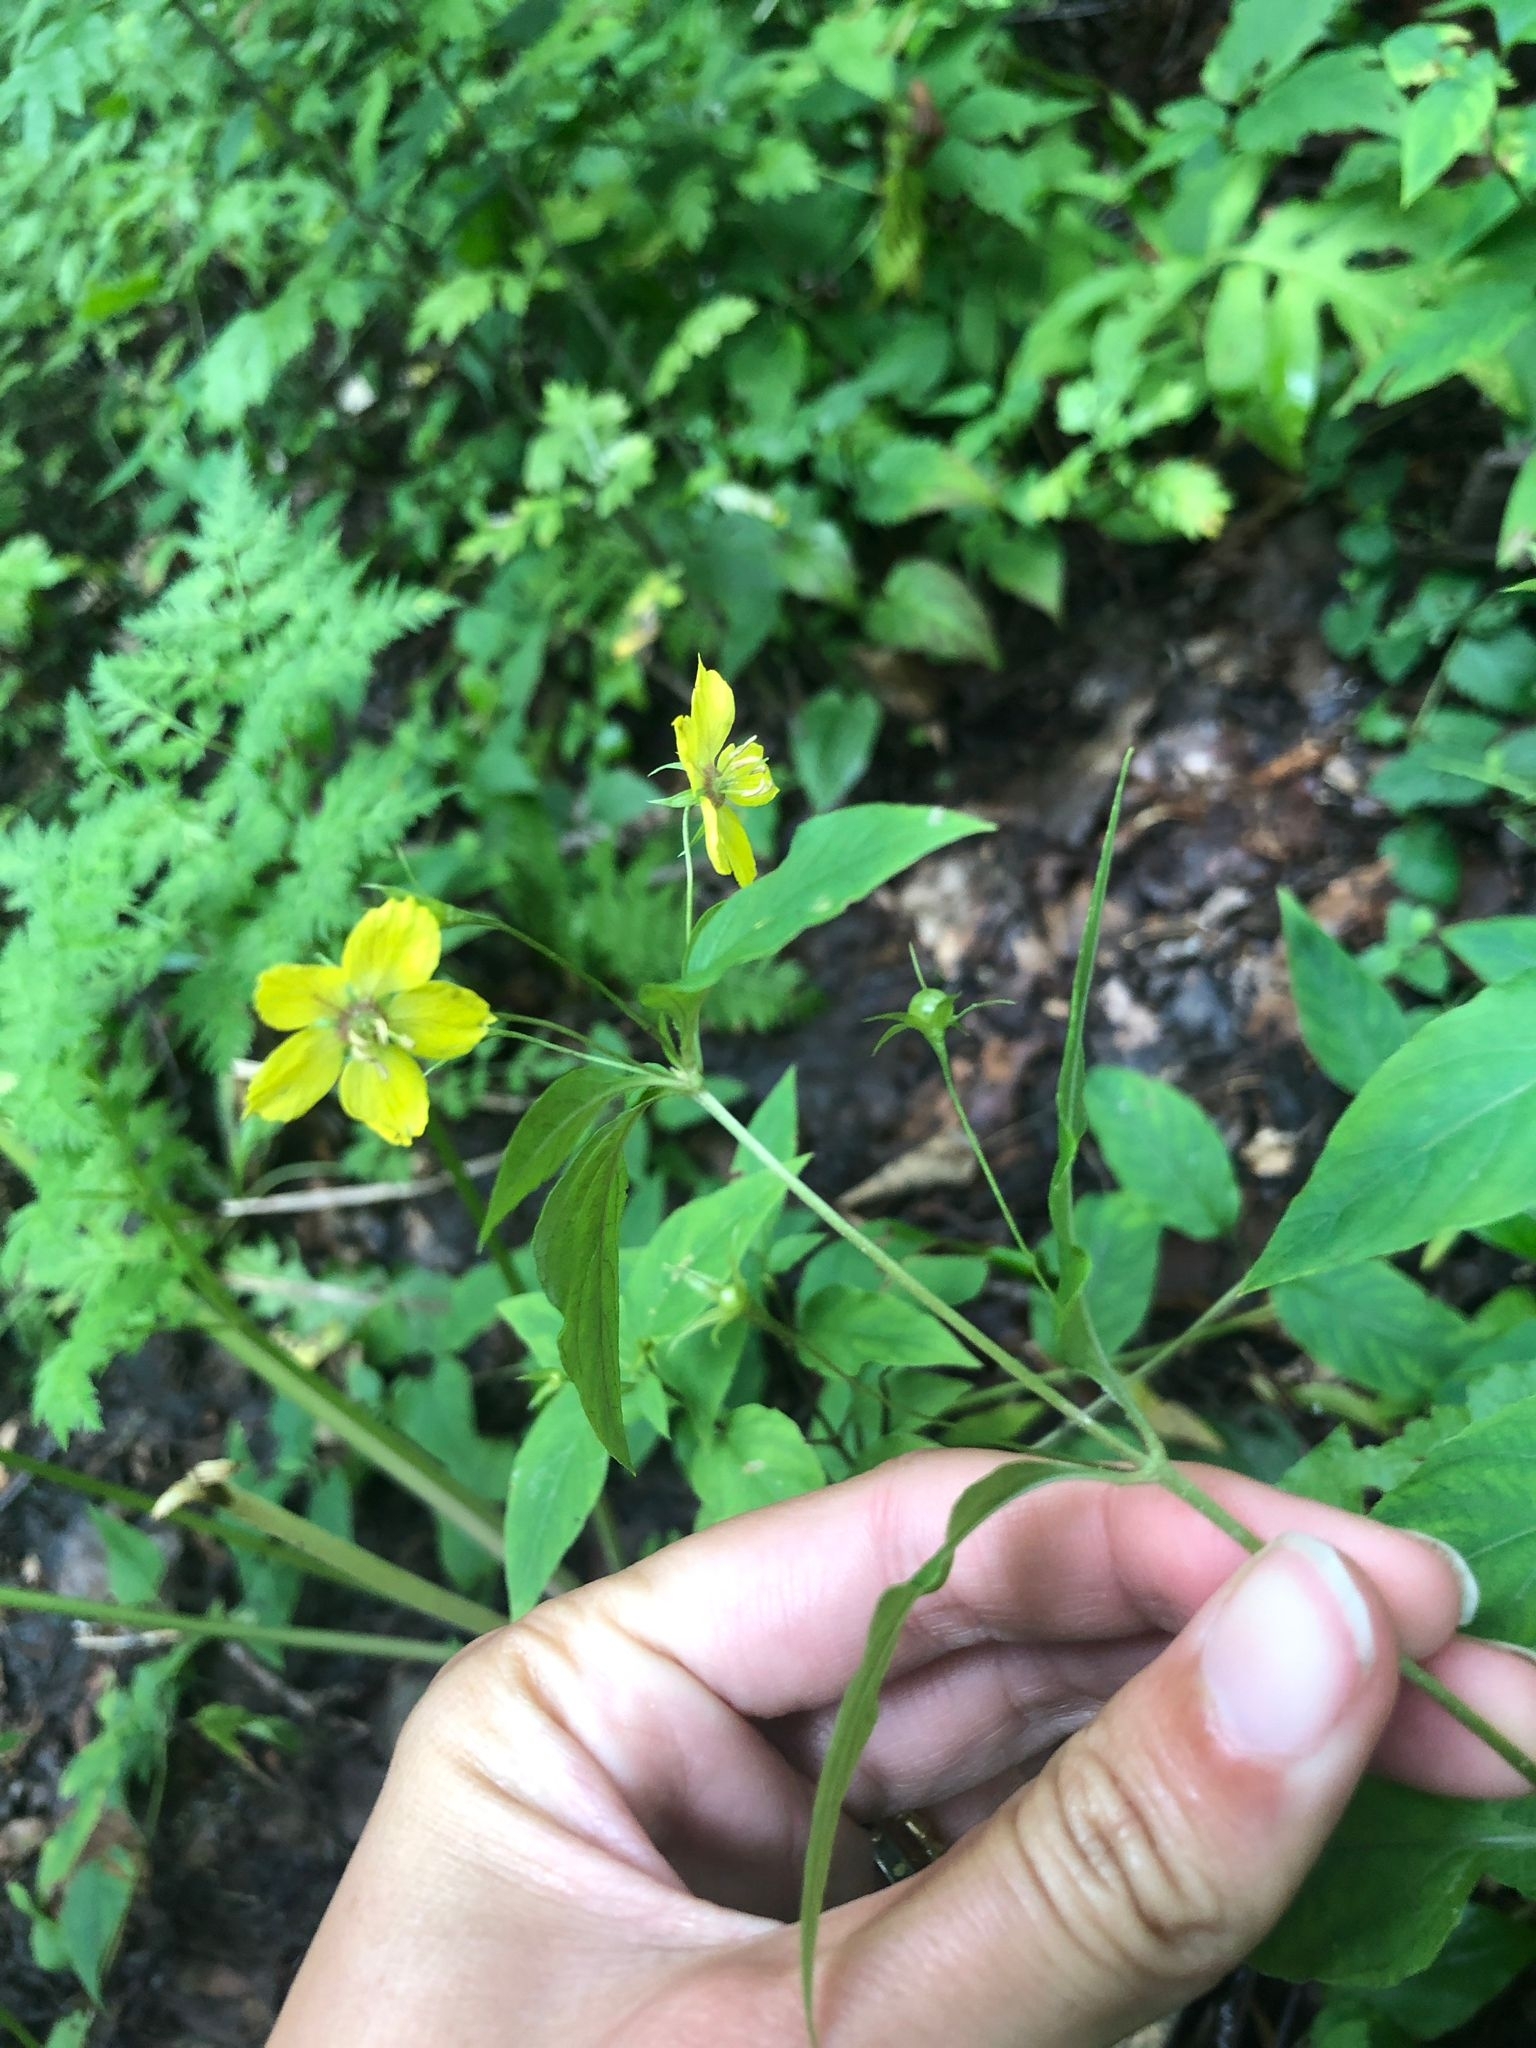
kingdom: Plantae
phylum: Tracheophyta
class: Magnoliopsida
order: Ericales
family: Primulaceae
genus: Lysimachia
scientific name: Lysimachia ciliata
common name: Fringed loosestrife
